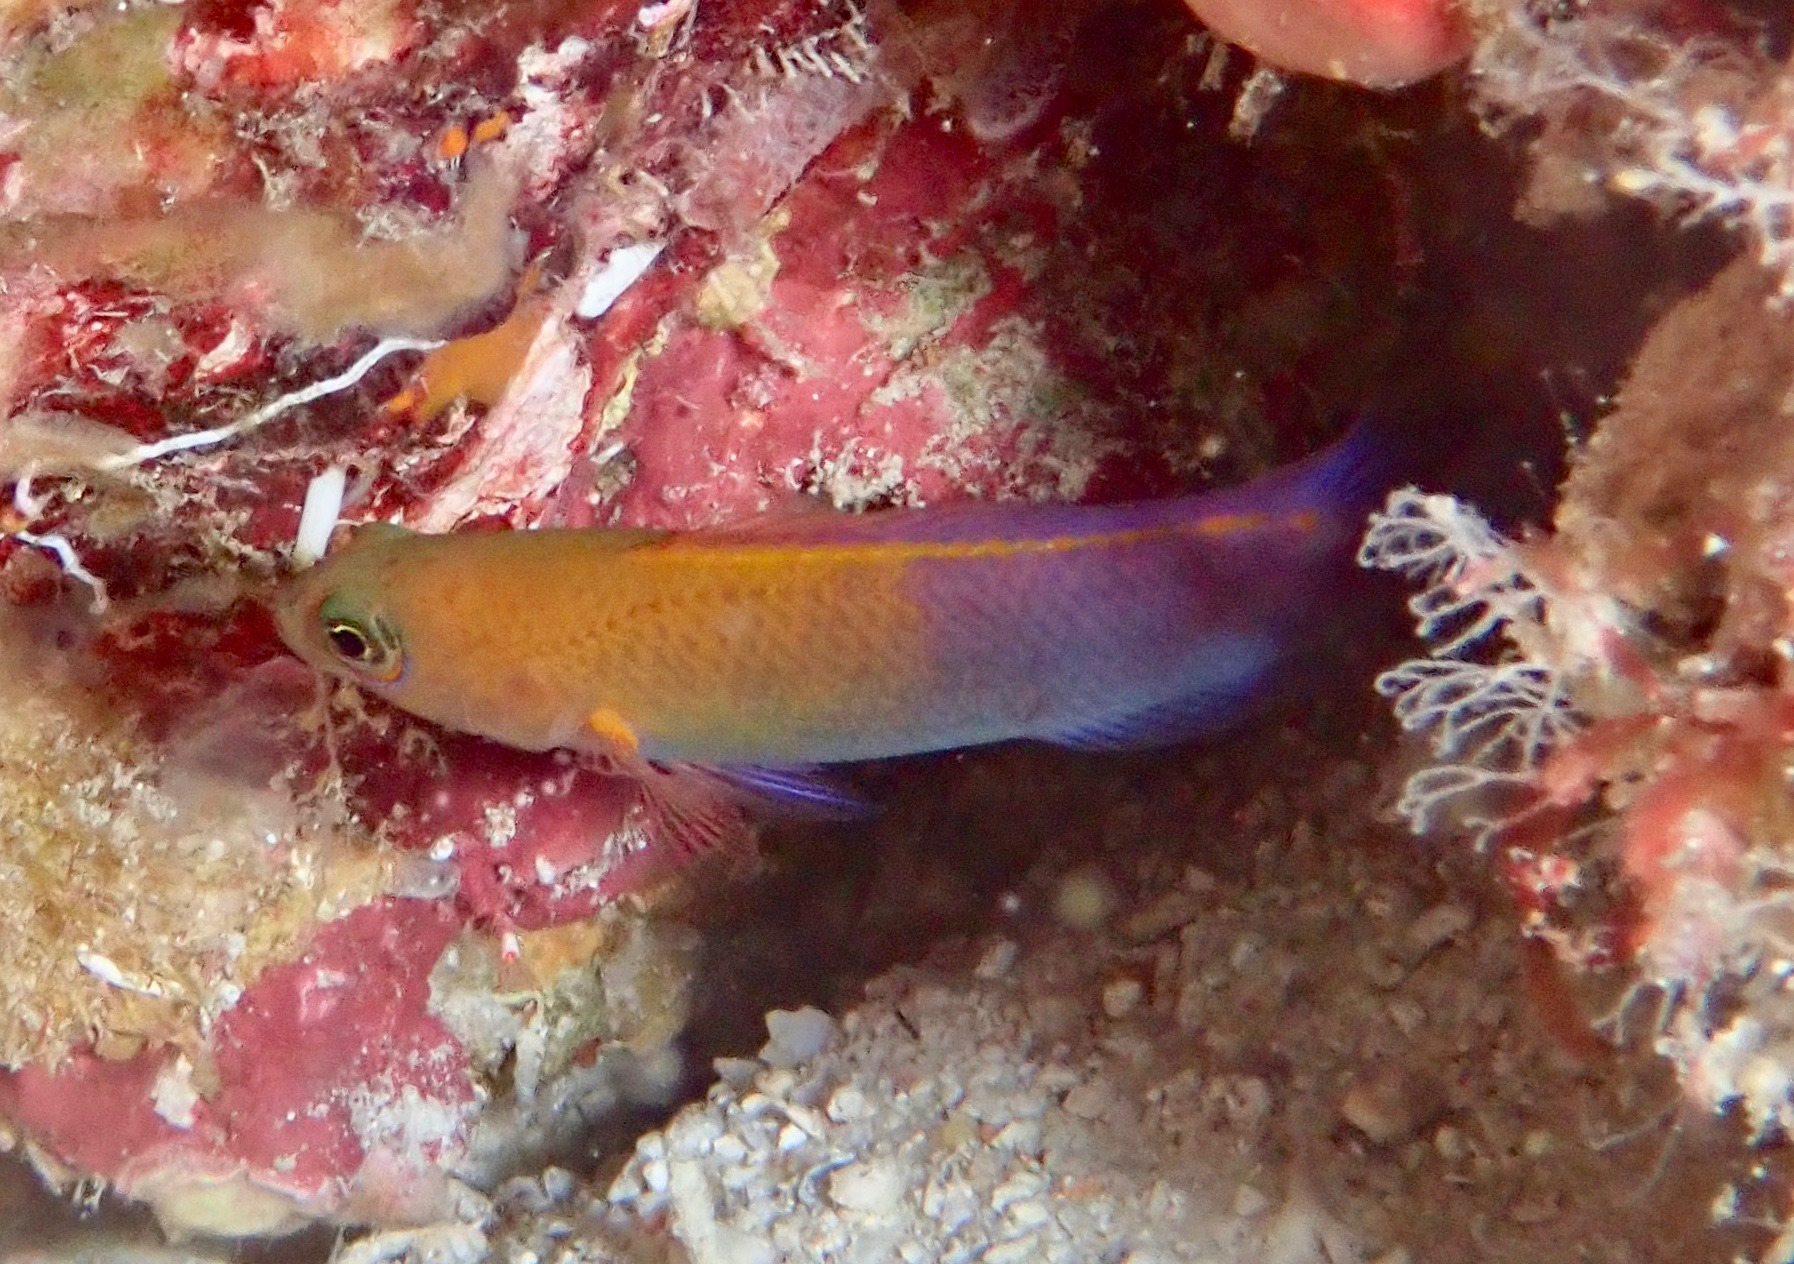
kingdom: Animalia
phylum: Chordata
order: Perciformes
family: Pseudochromidae
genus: Pseudochromis
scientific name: Pseudochromis andamanensis
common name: Andaman dottyback
